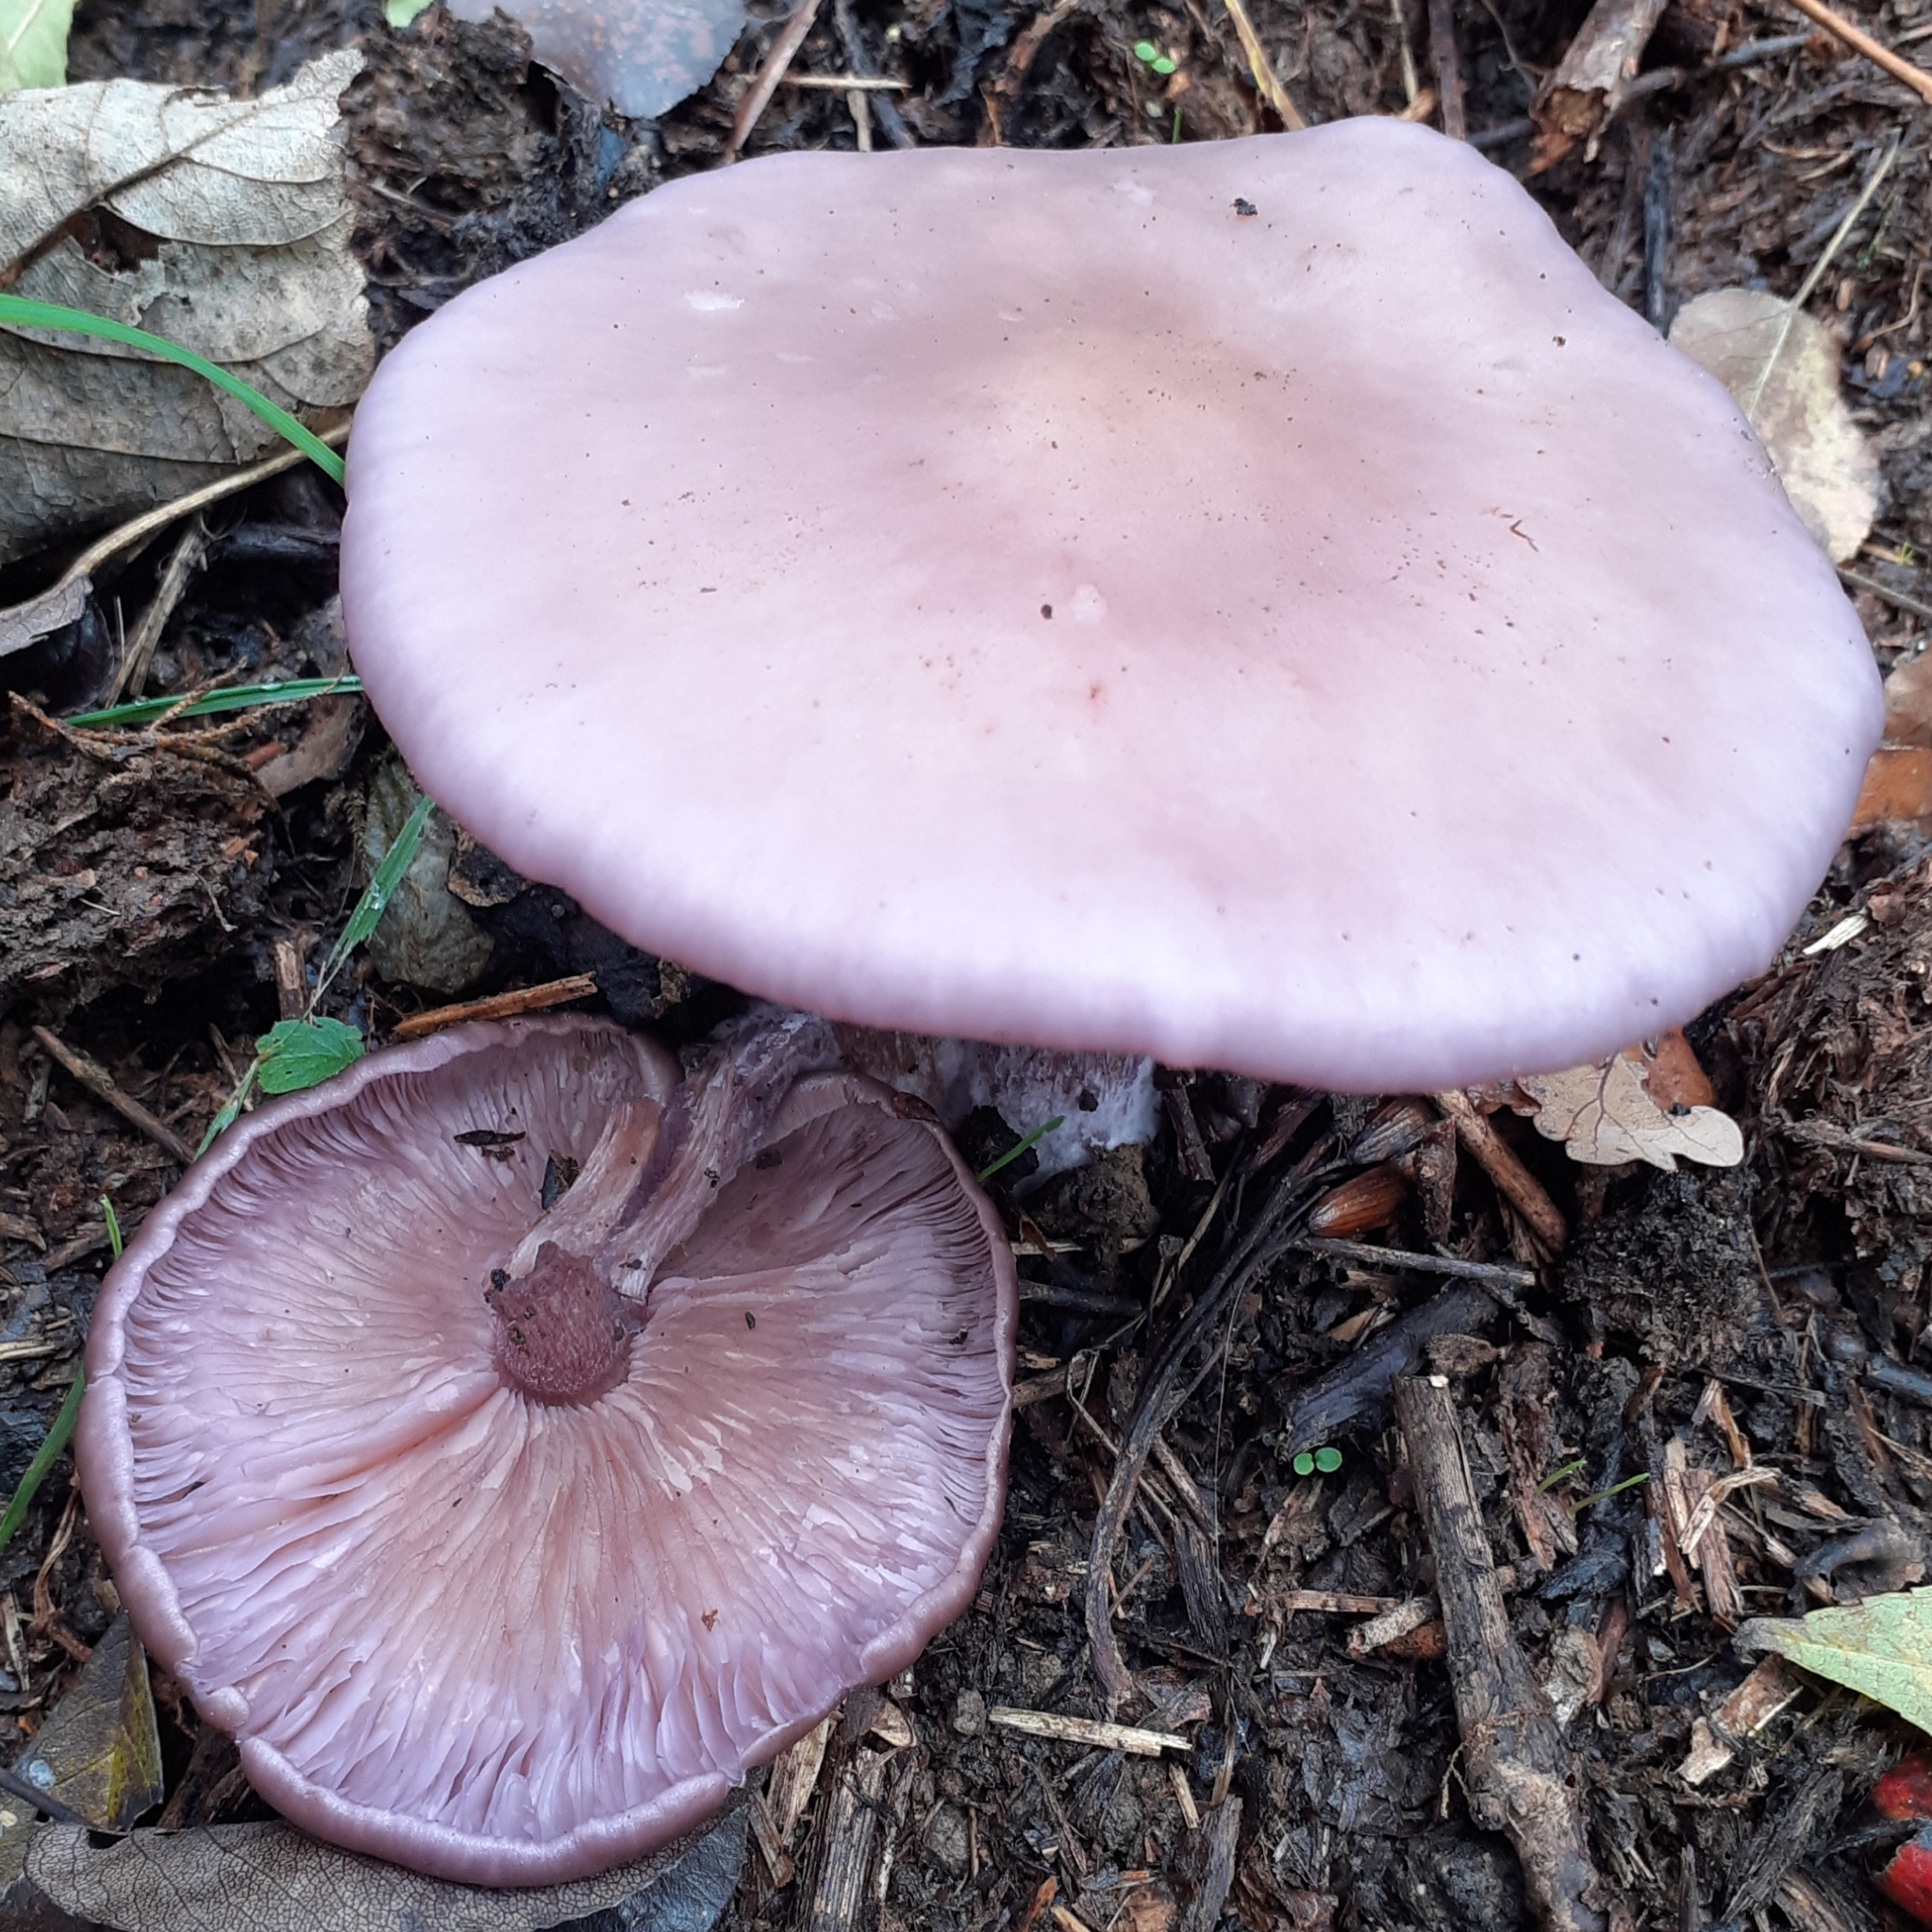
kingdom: Fungi
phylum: Basidiomycota
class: Agaricomycetes
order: Agaricales
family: Tricholomataceae
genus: Collybia
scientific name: Collybia
